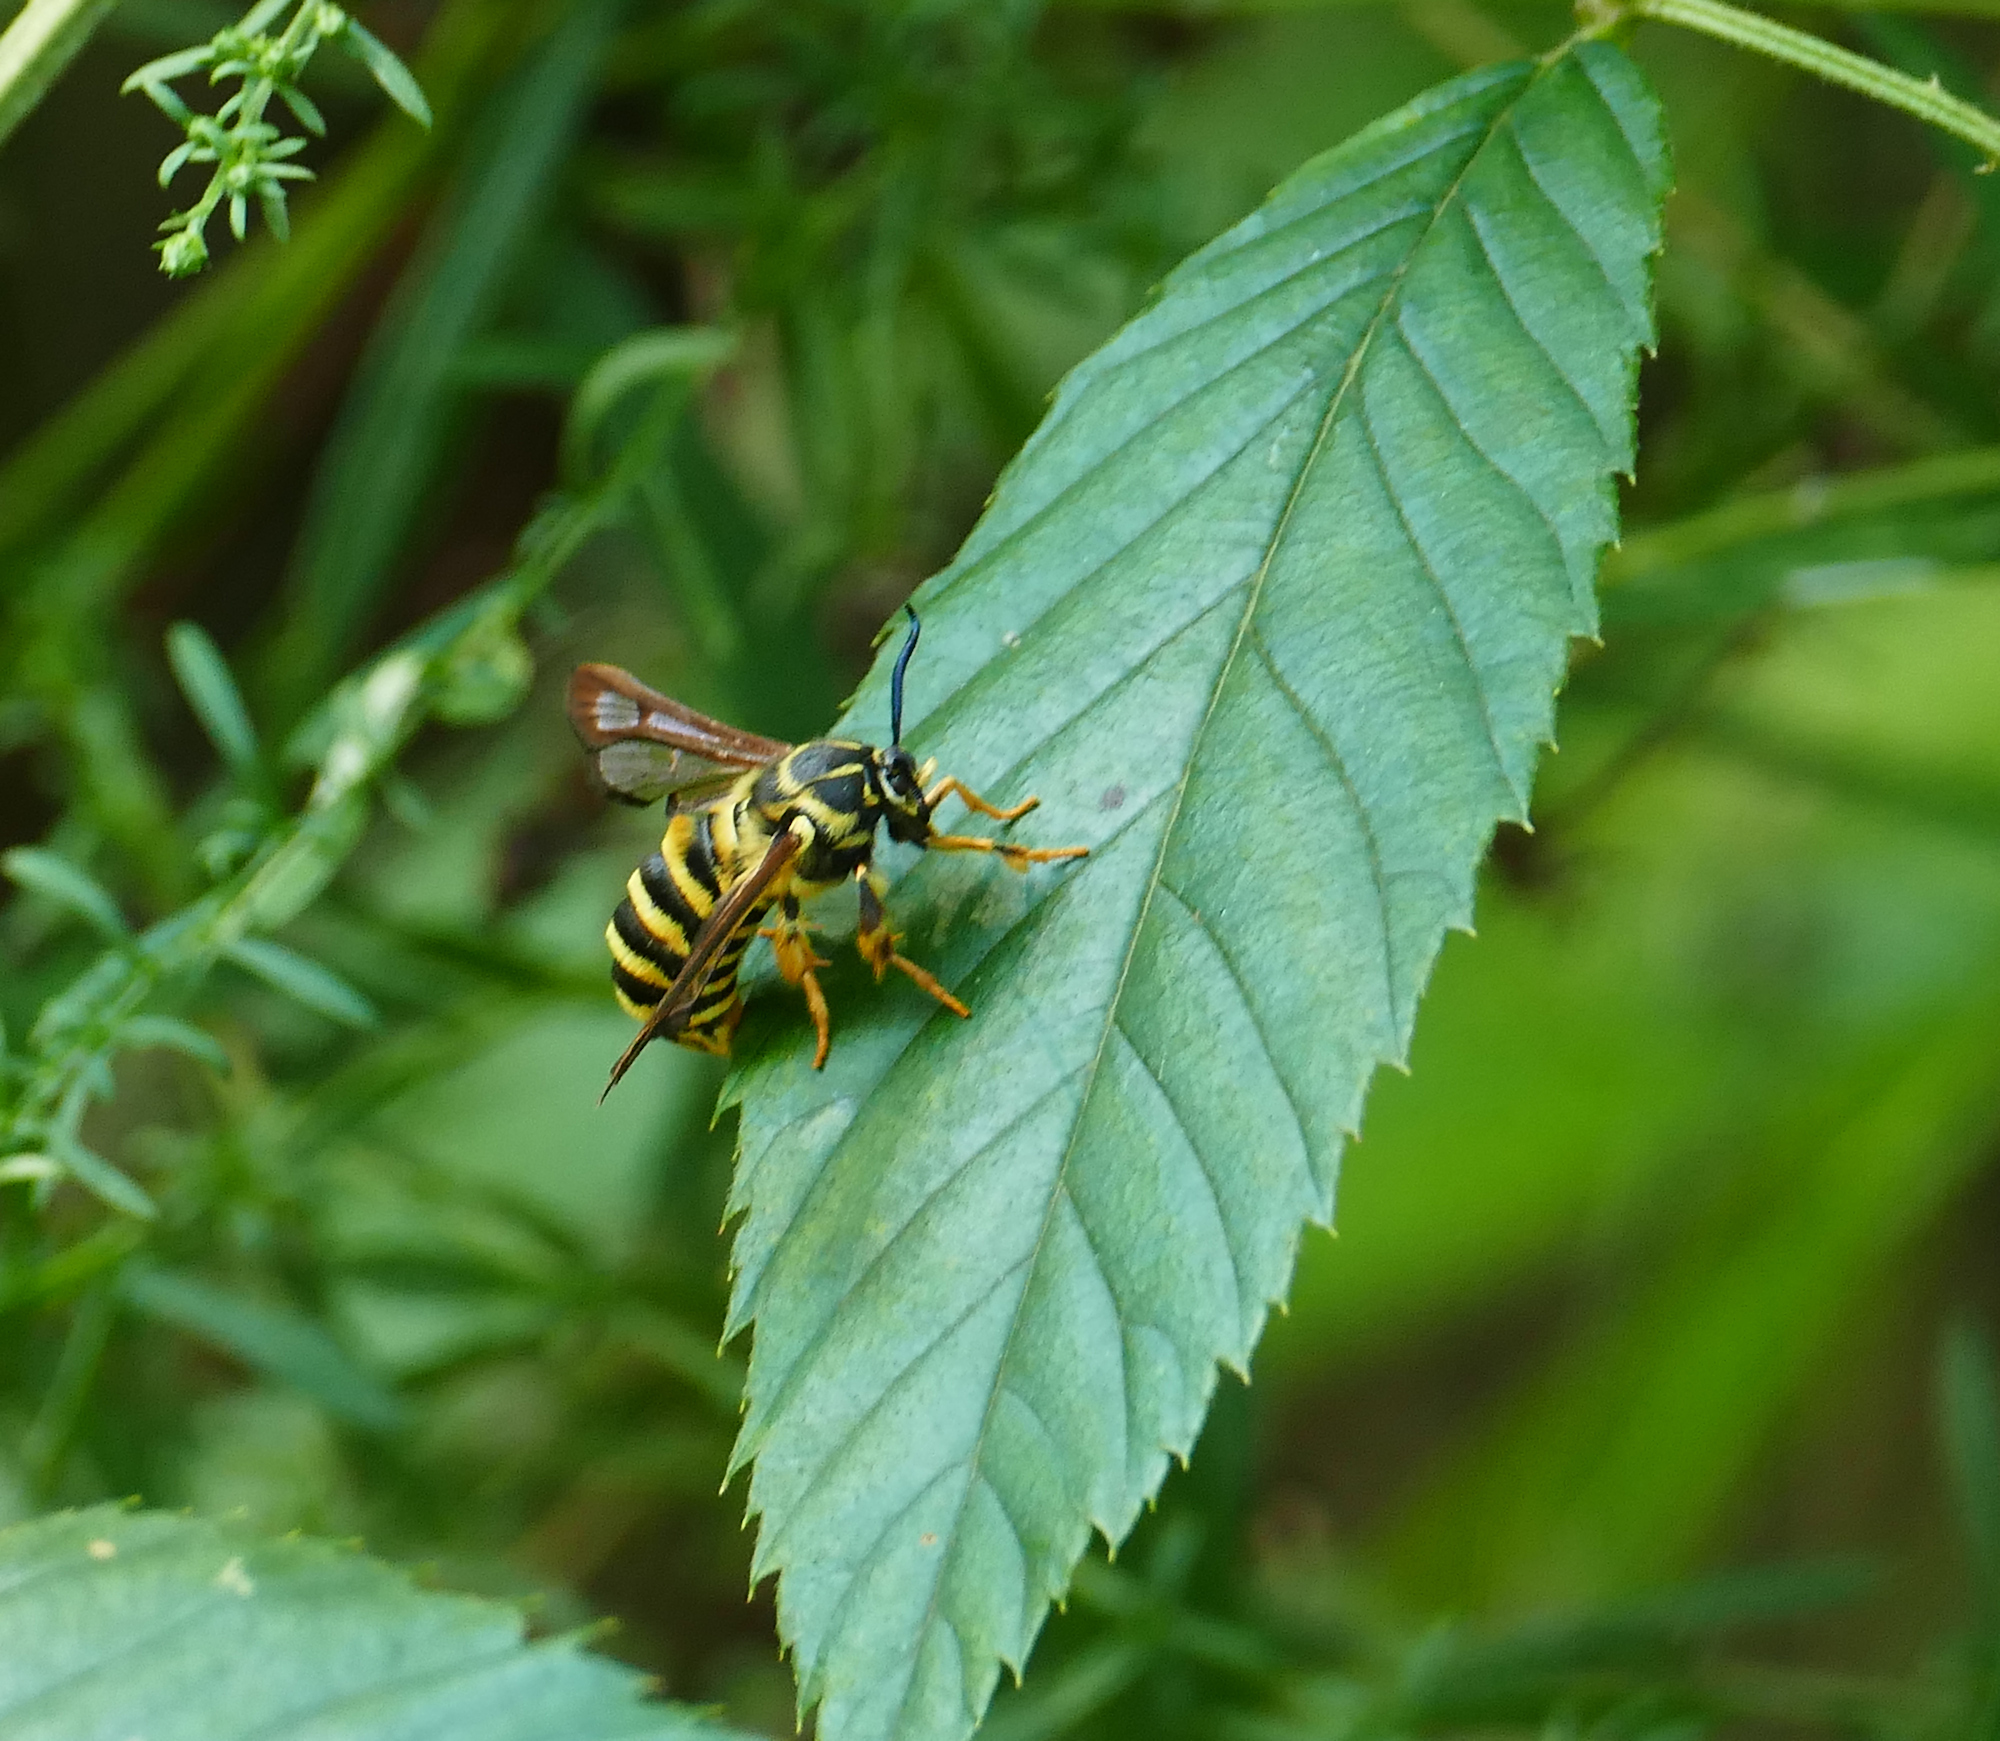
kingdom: Animalia
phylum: Arthropoda
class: Insecta
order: Lepidoptera
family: Sesiidae
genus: Pennisetia
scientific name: Pennisetia marginatum
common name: Raspberry crown borer
